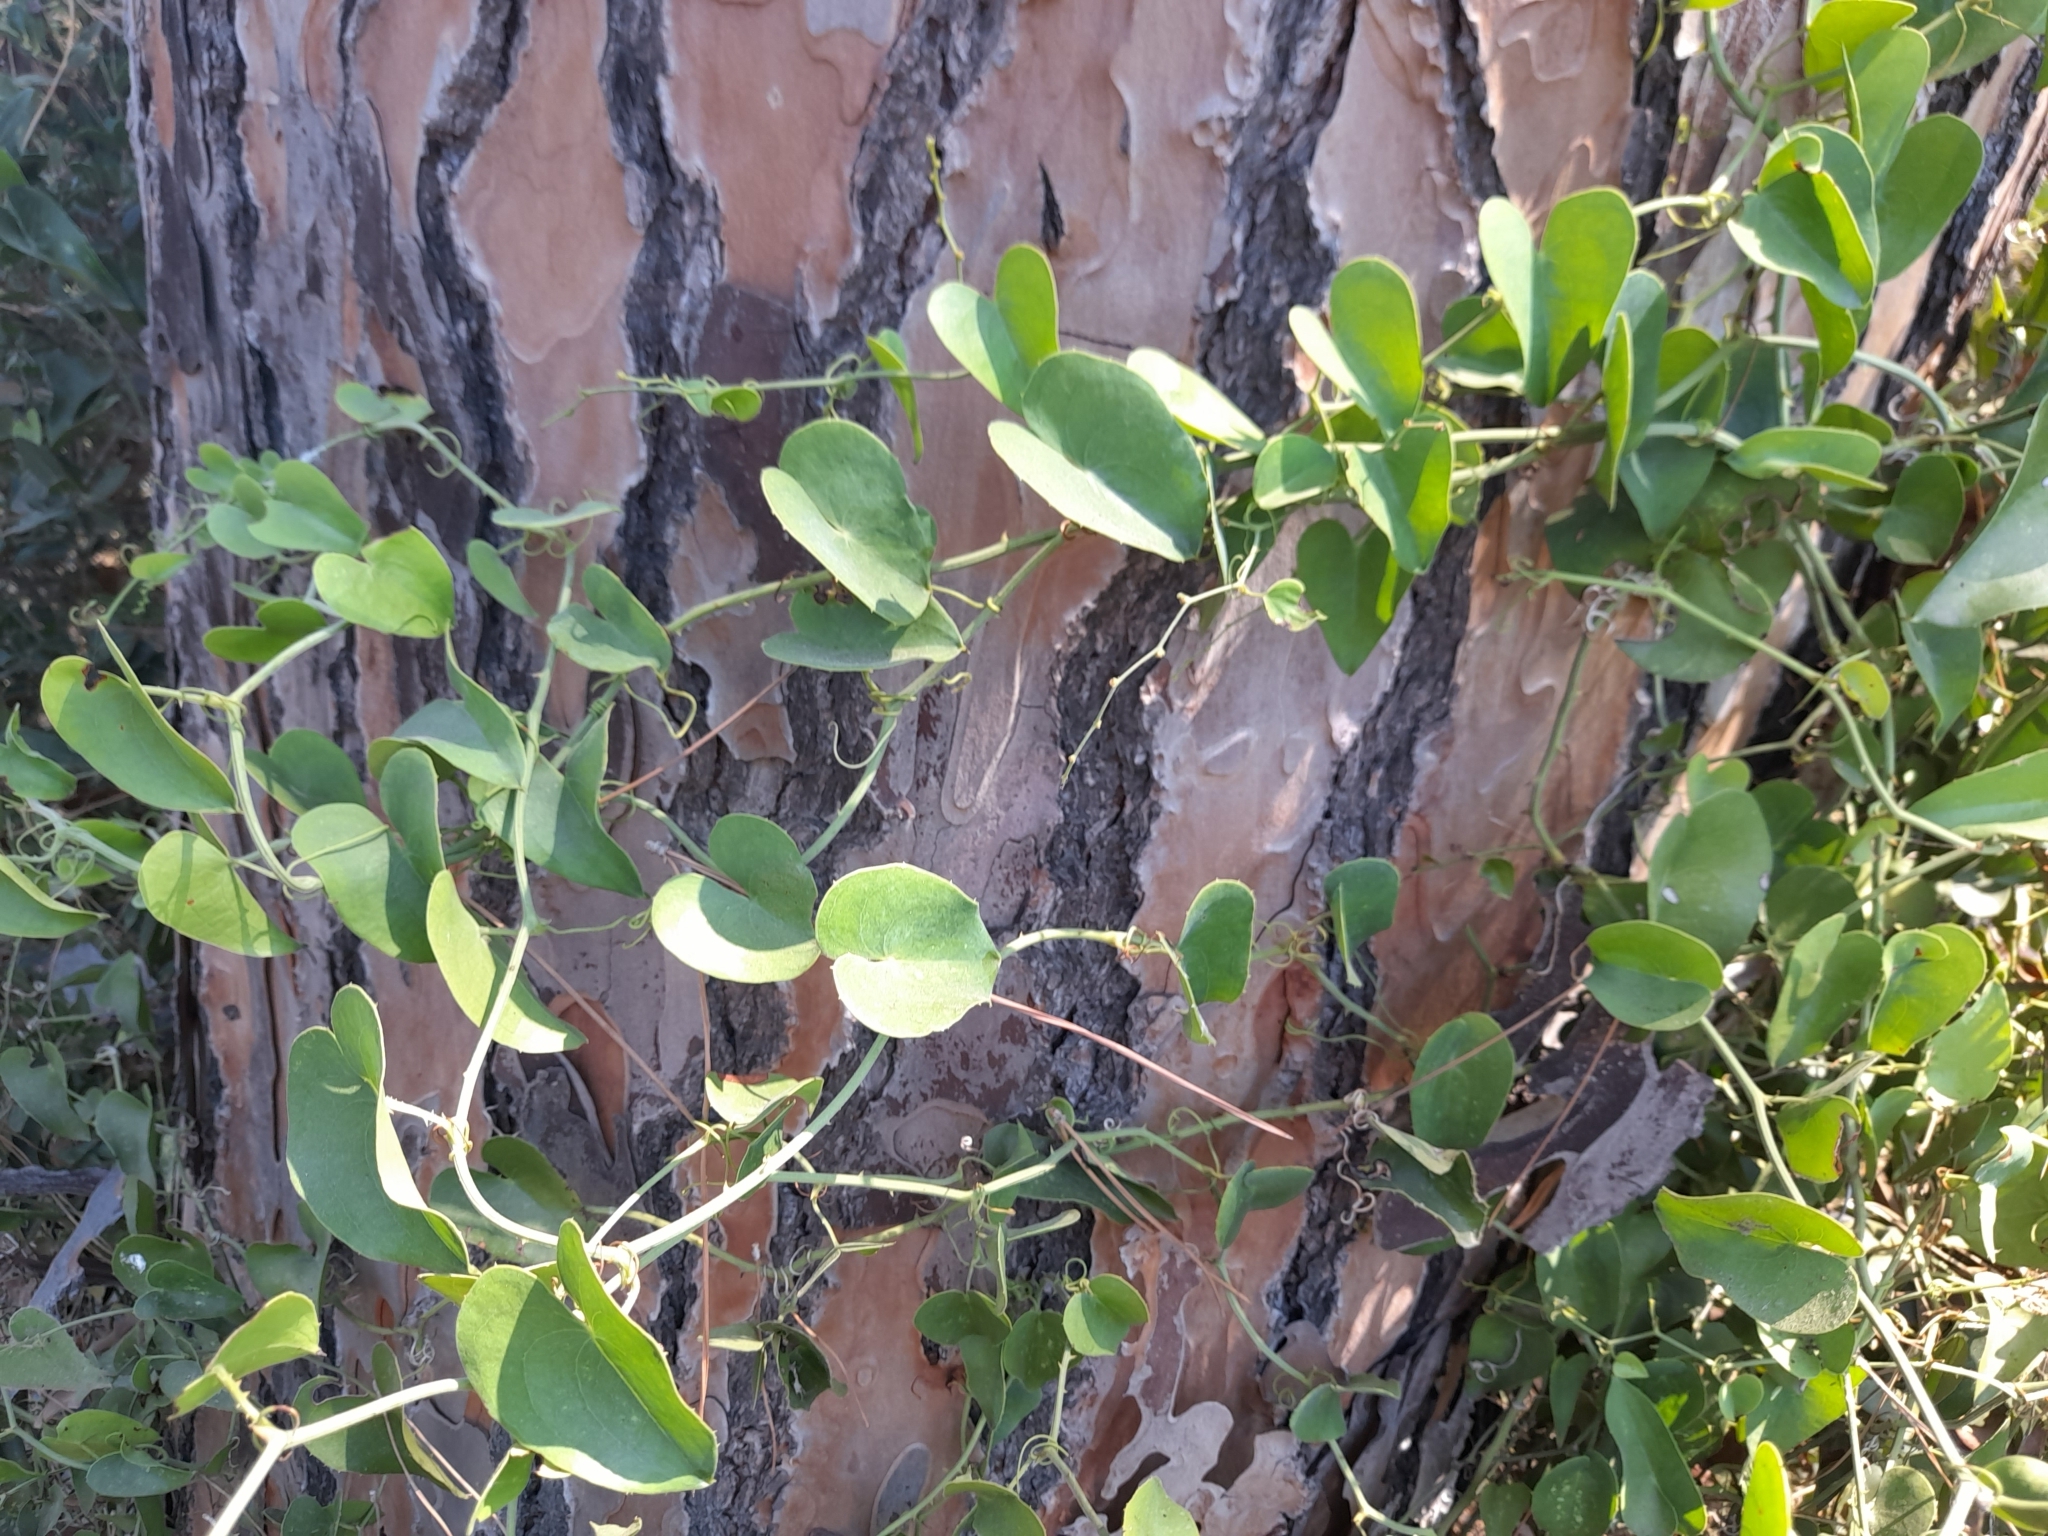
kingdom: Plantae
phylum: Tracheophyta
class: Liliopsida
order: Liliales
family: Smilacaceae
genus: Smilax
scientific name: Smilax aspera
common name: Common smilax
